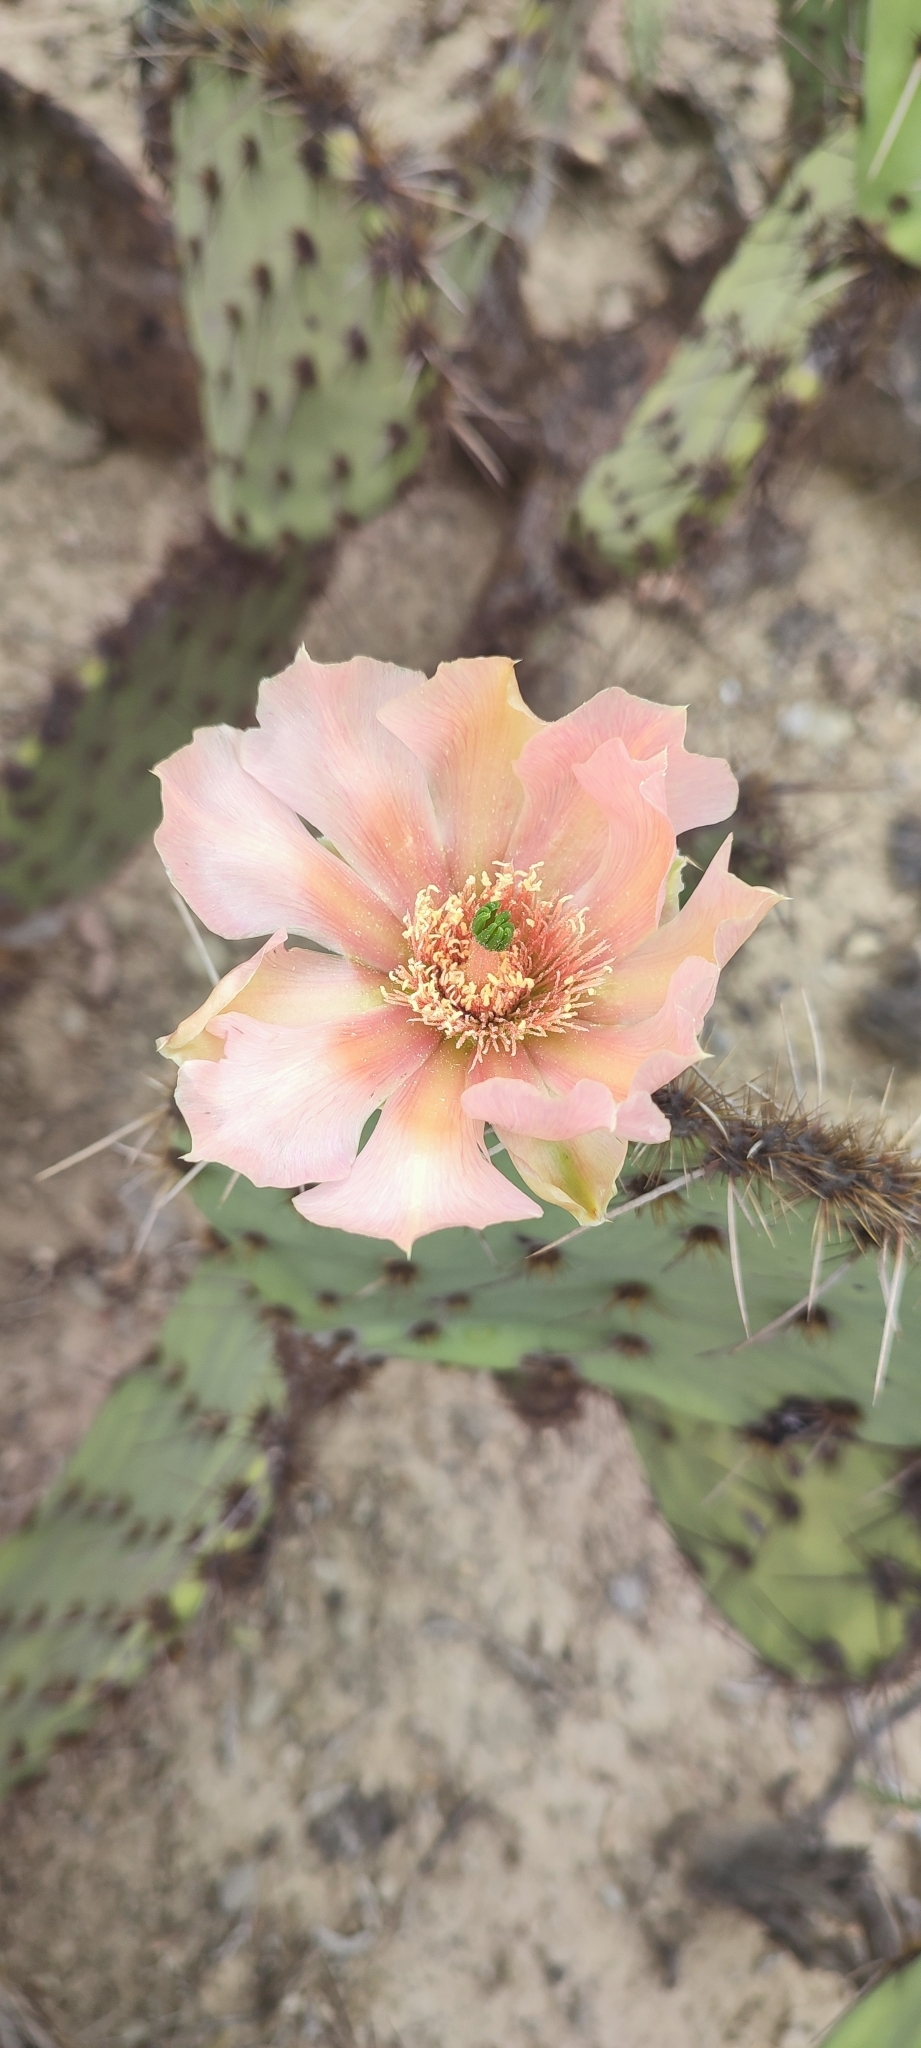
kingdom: Plantae
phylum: Tracheophyta
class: Magnoliopsida
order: Caryophyllales
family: Cactaceae
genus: Opuntia
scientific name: Opuntia rastrera
